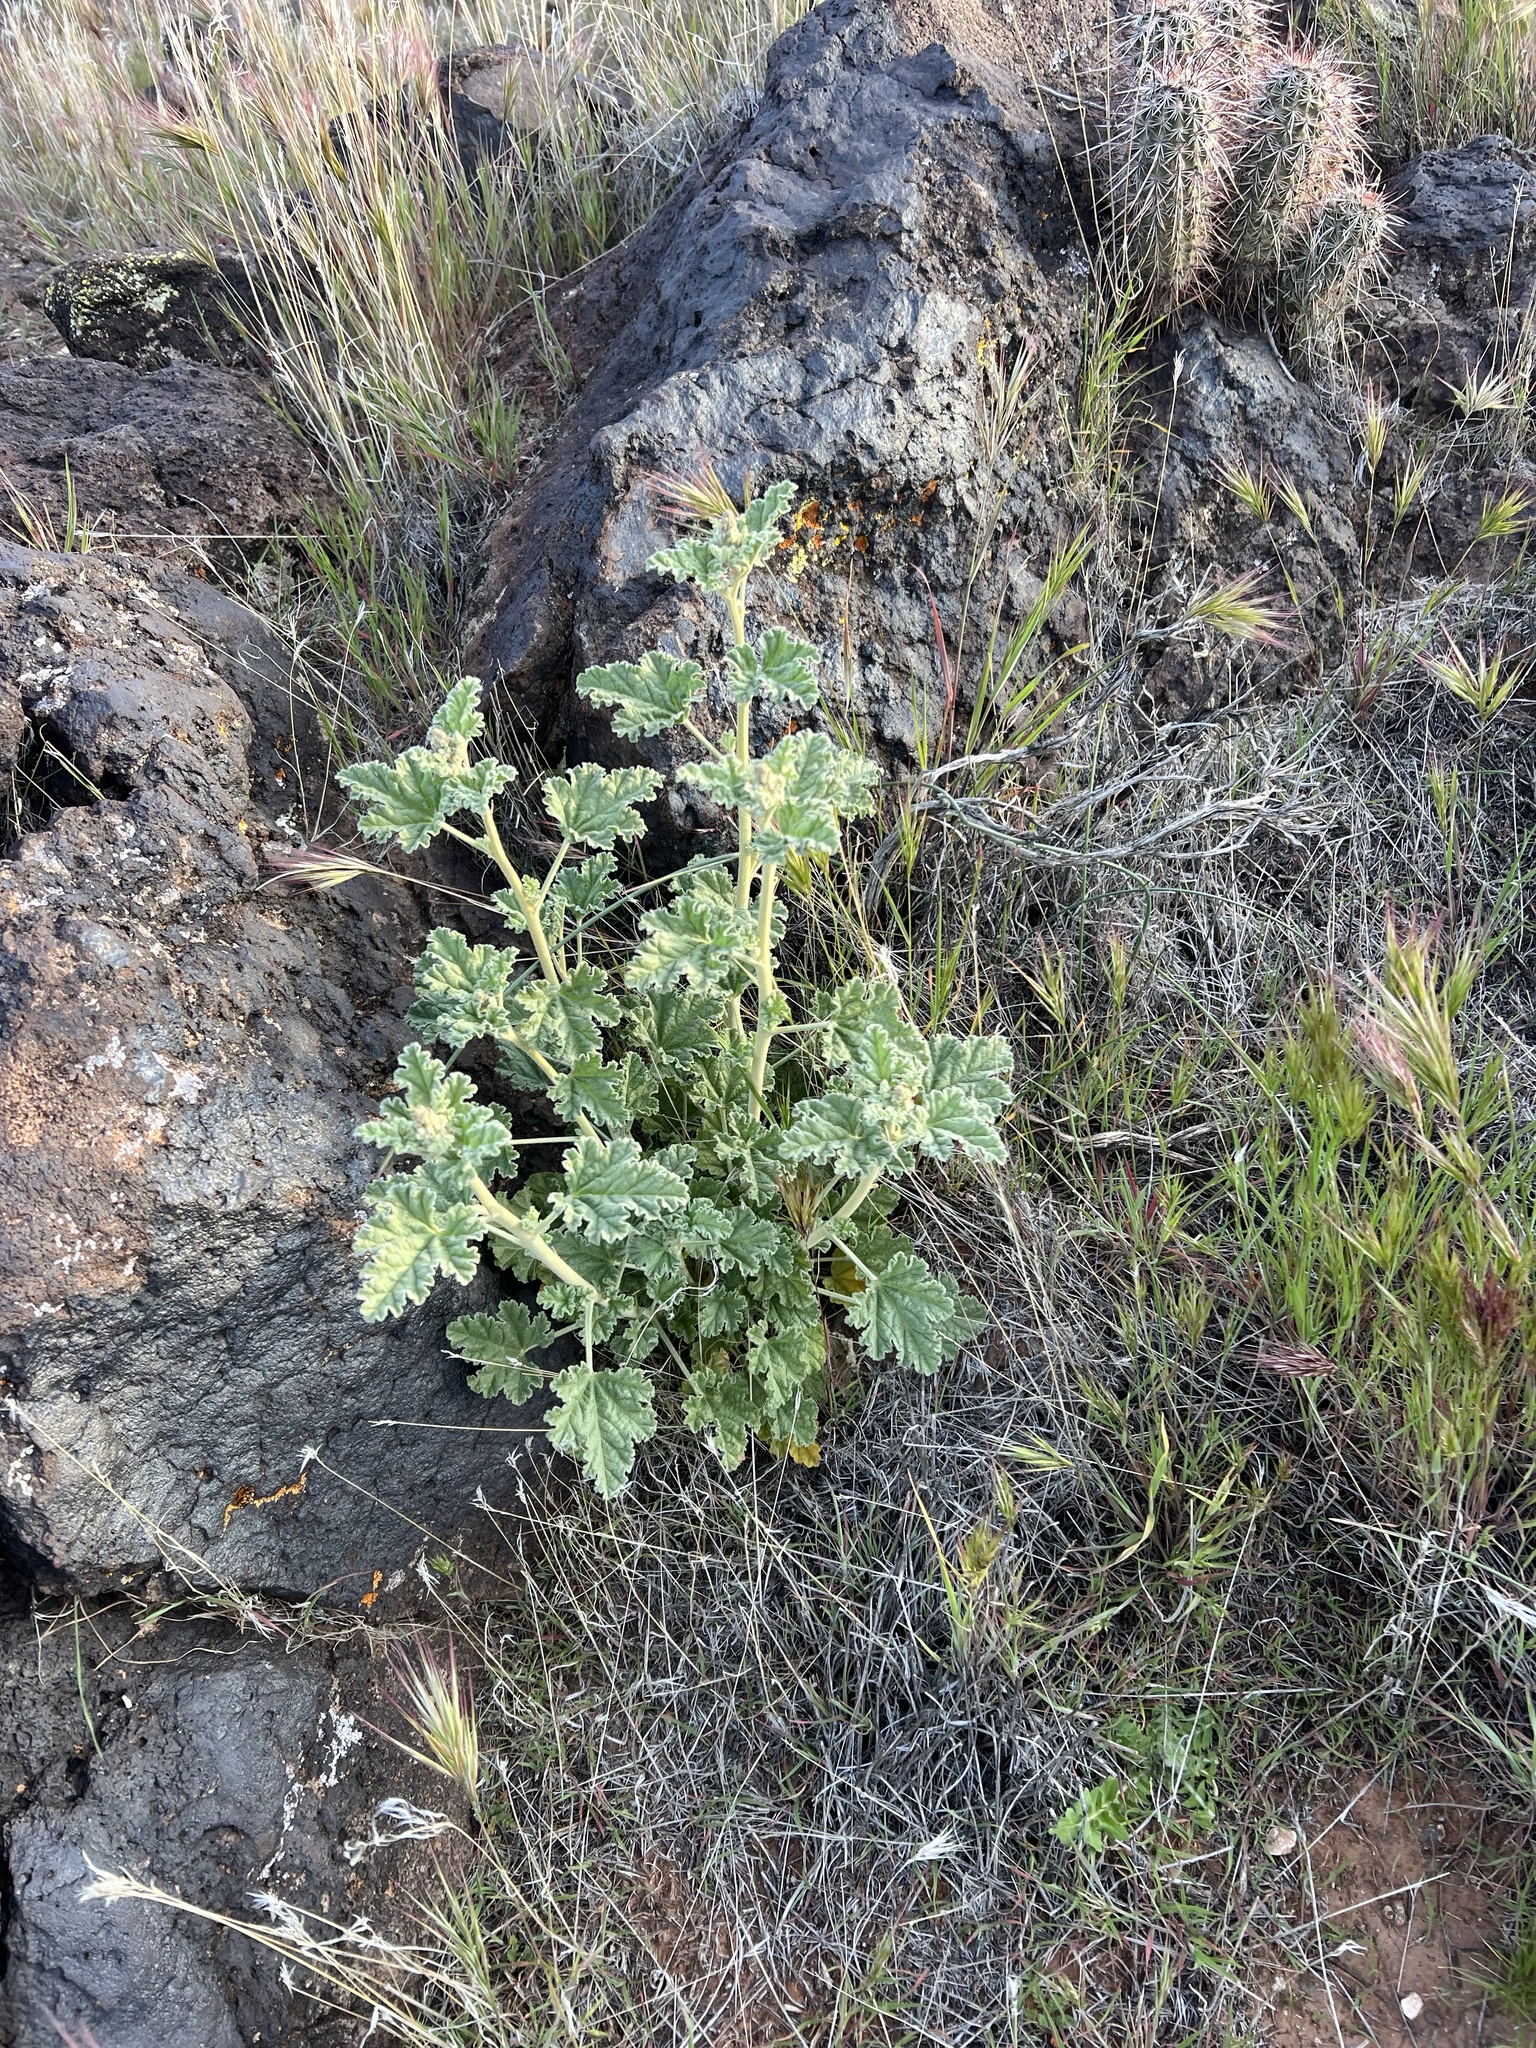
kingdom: Plantae
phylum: Tracheophyta
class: Magnoliopsida
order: Malvales
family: Malvaceae
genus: Sphaeralcea
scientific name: Sphaeralcea ambigua
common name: Apricot globe-mallow
